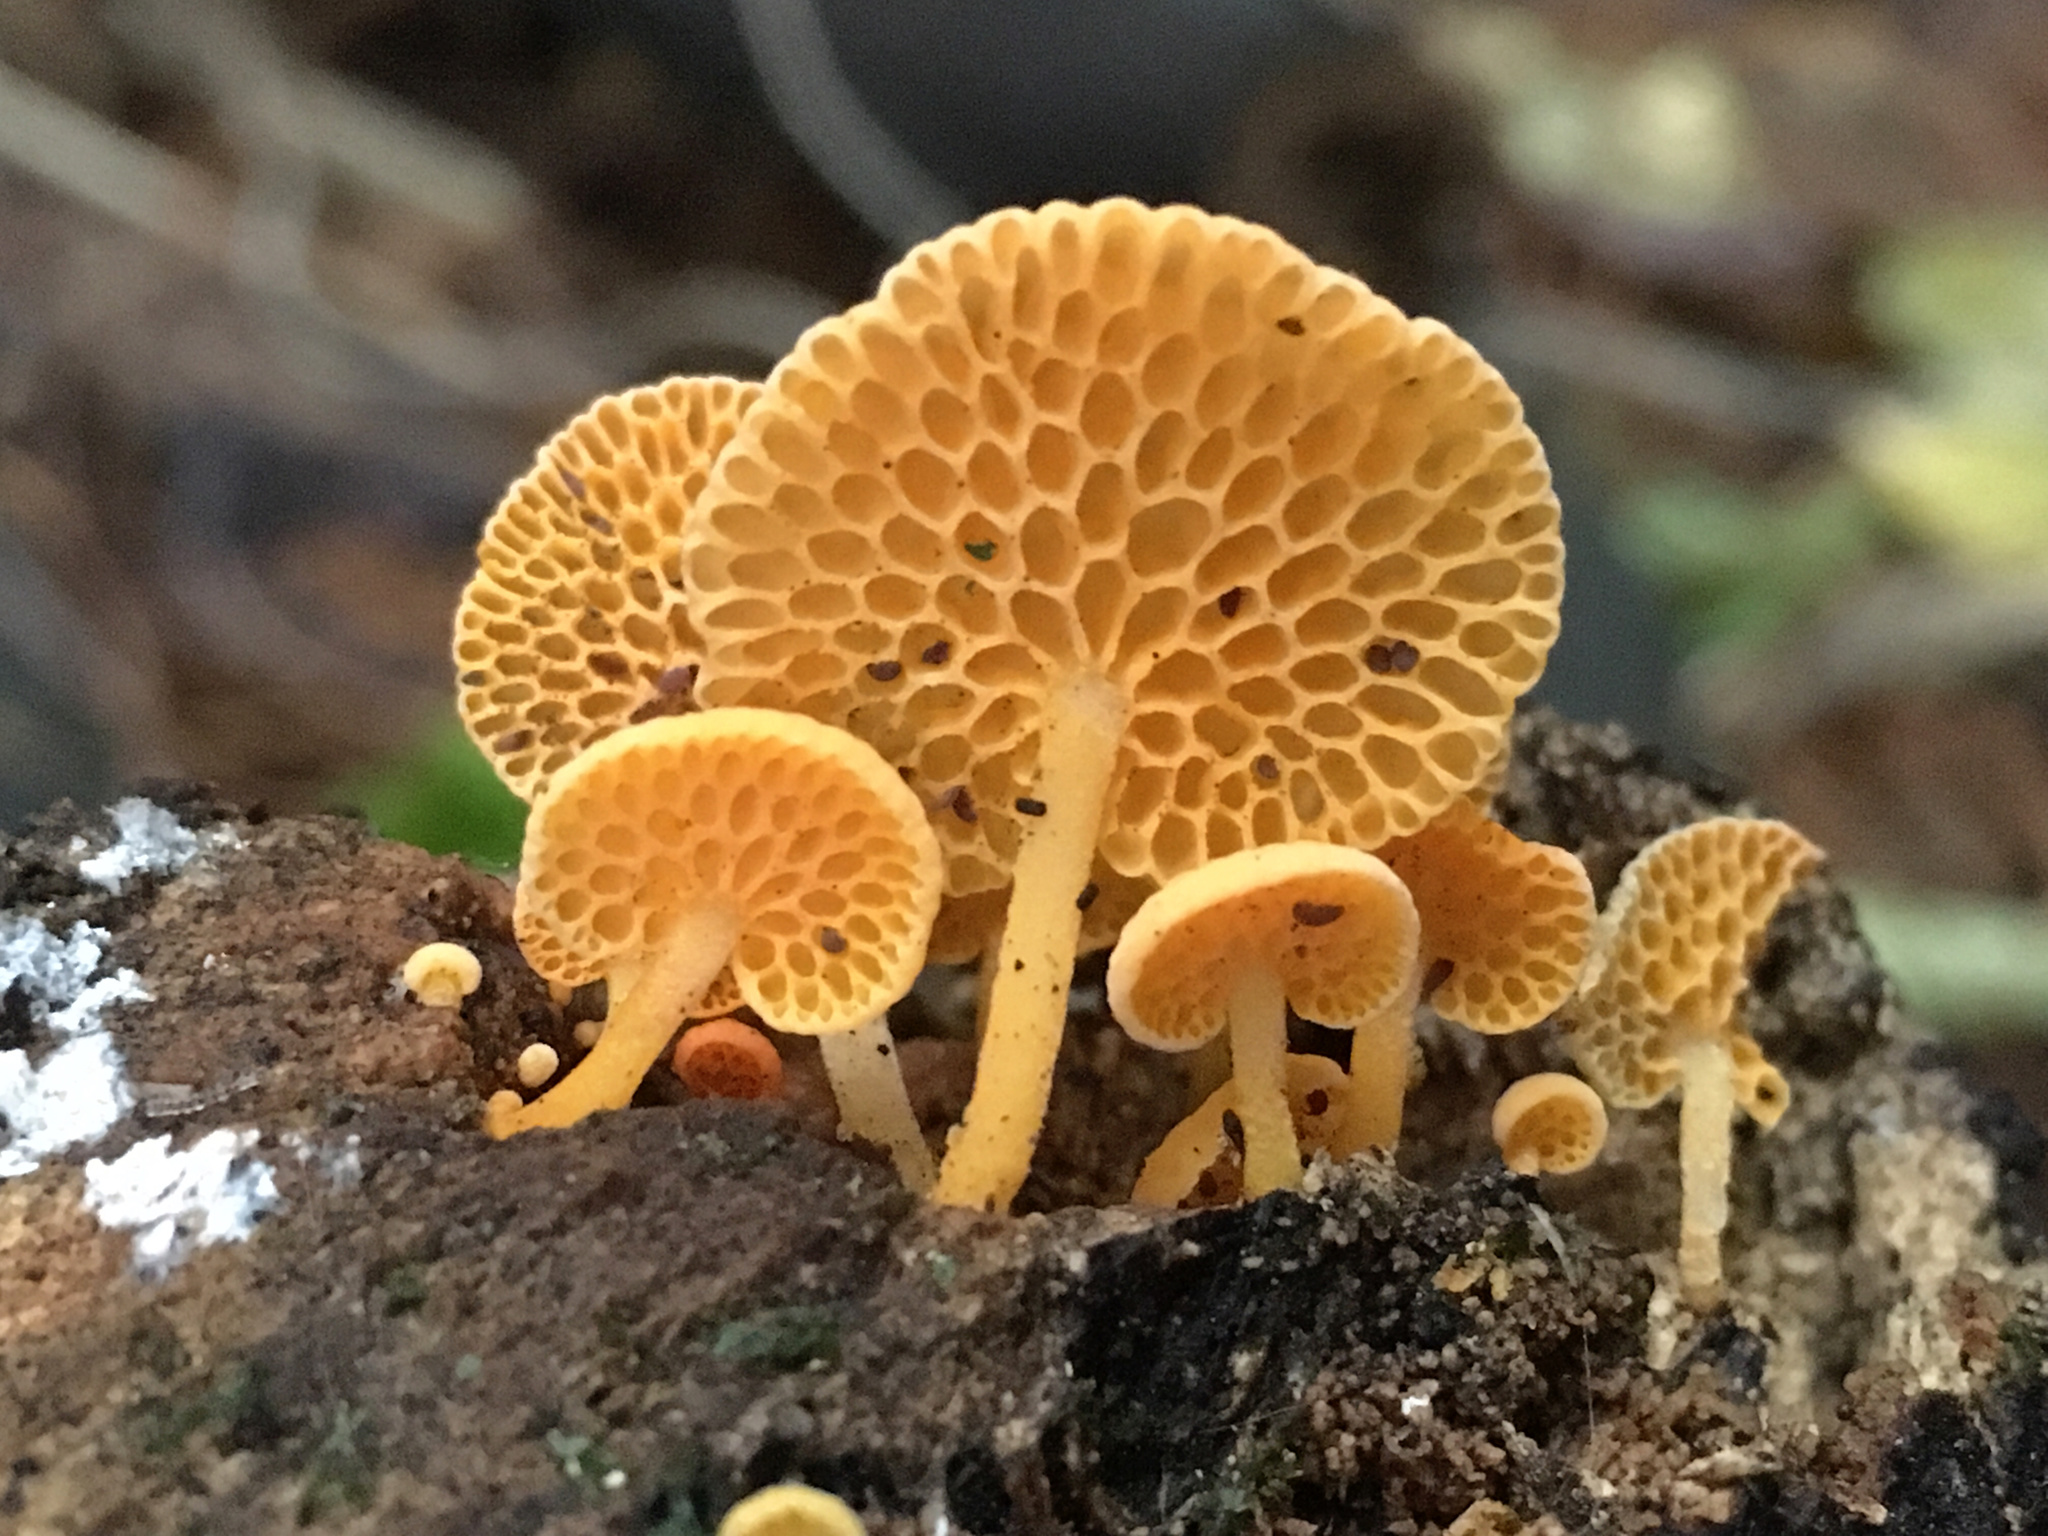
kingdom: Fungi
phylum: Basidiomycota
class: Agaricomycetes
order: Agaricales
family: Mycenaceae
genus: Favolaschia
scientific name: Favolaschia claudopus
